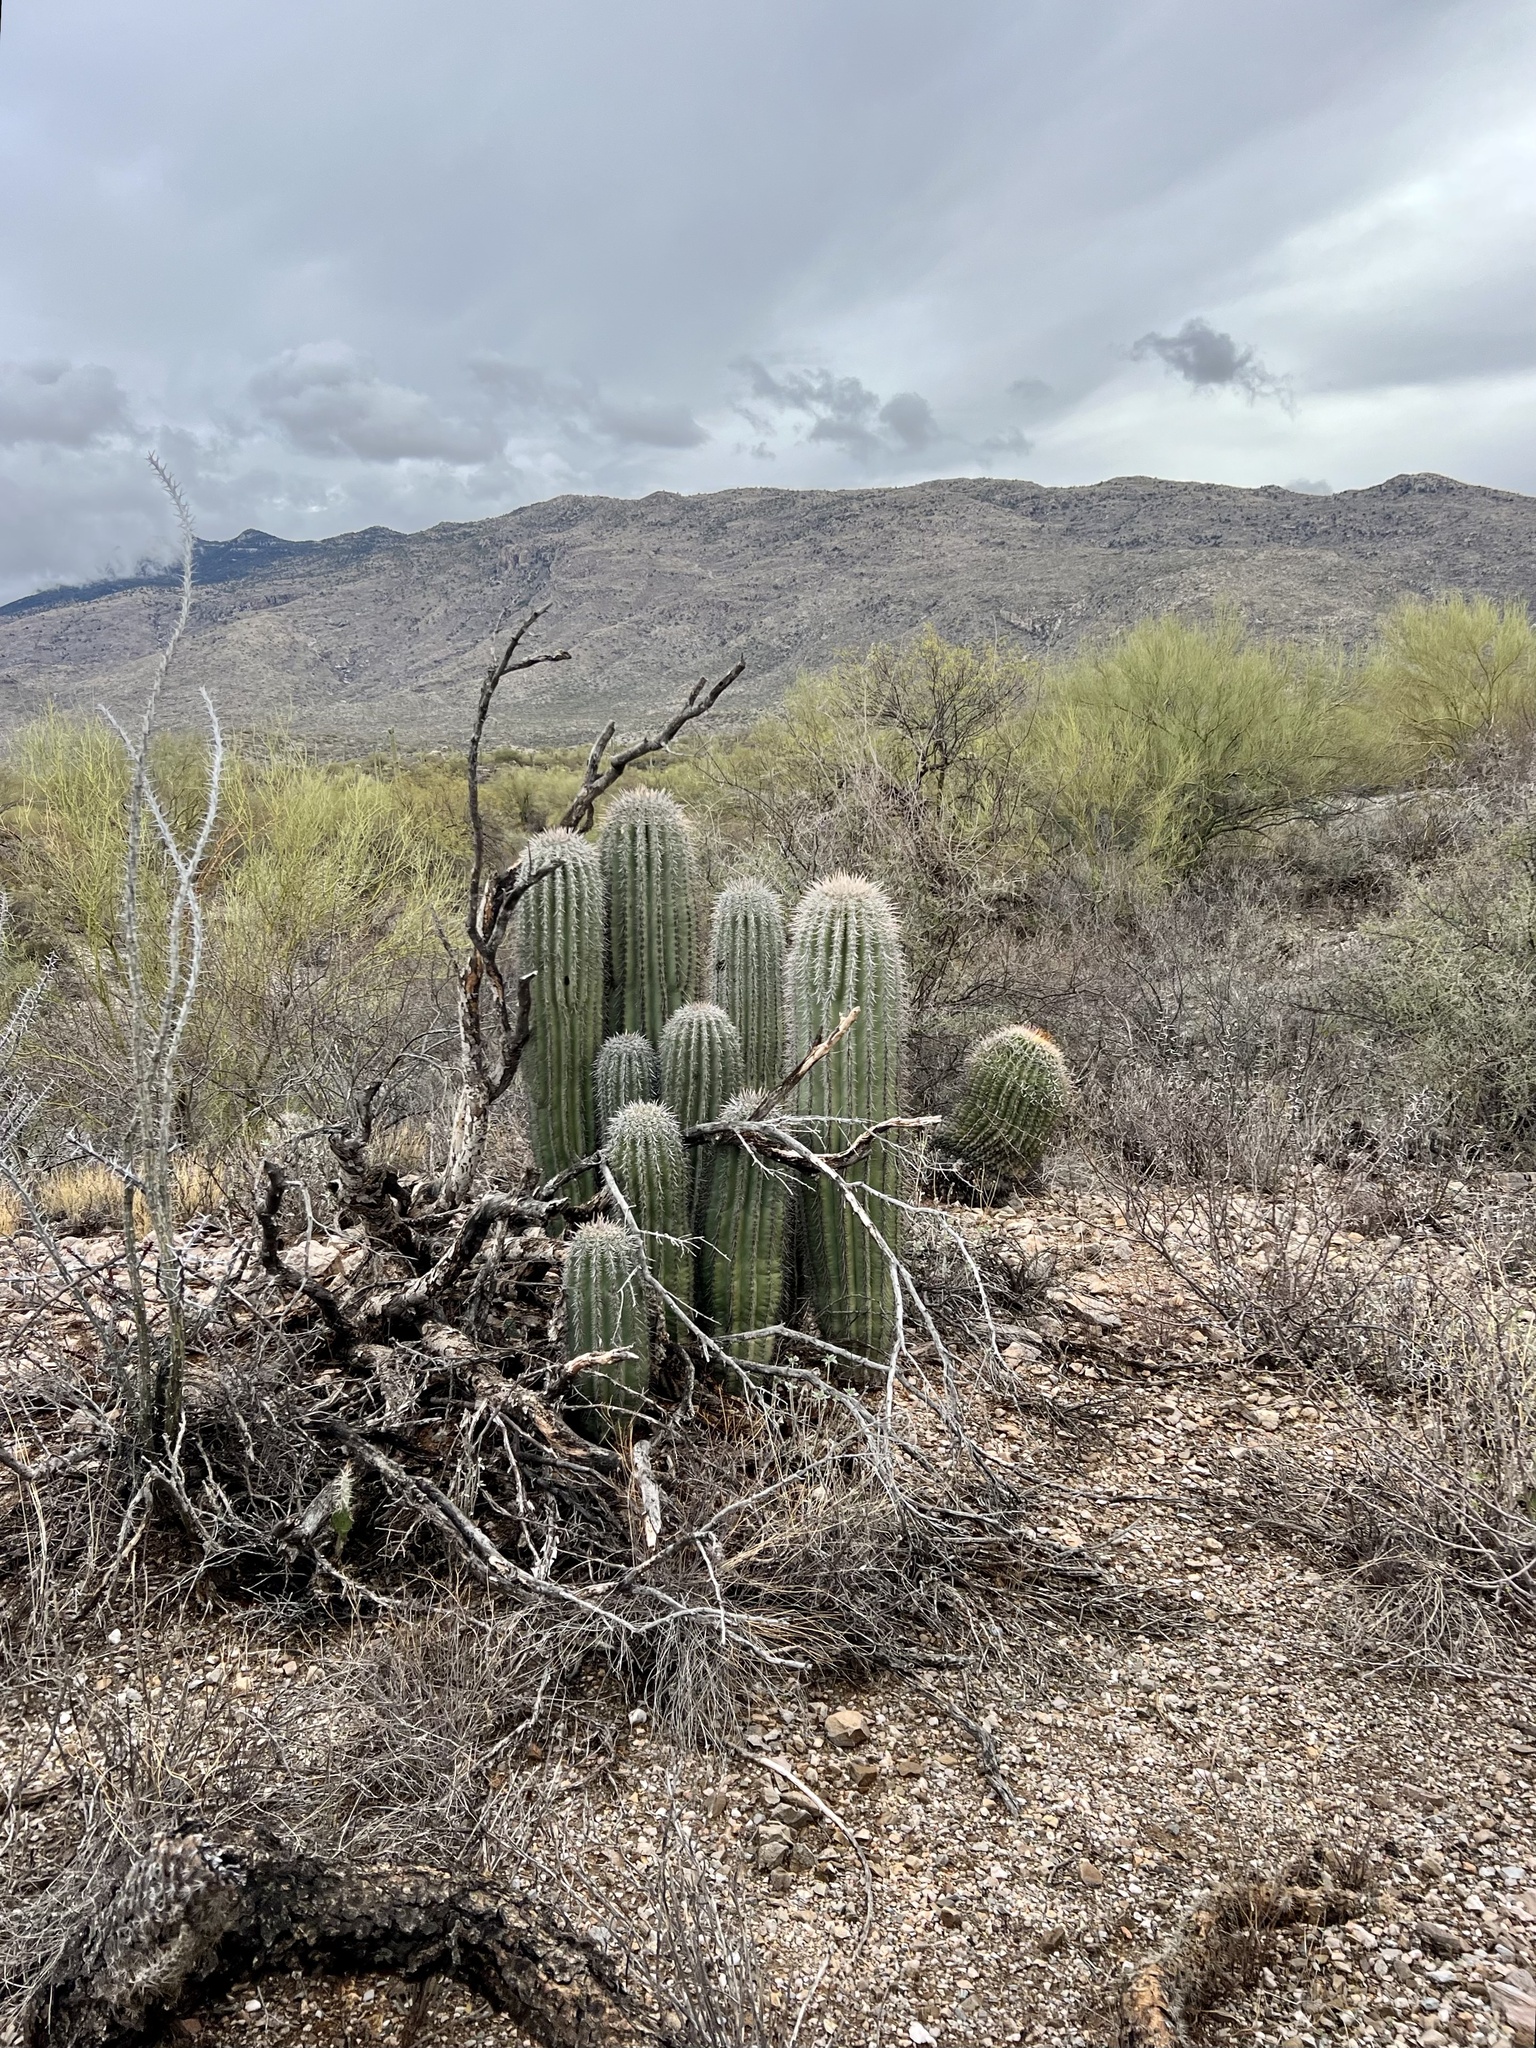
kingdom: Plantae
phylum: Tracheophyta
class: Magnoliopsida
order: Caryophyllales
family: Cactaceae
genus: Carnegiea
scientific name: Carnegiea gigantea
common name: Saguaro
